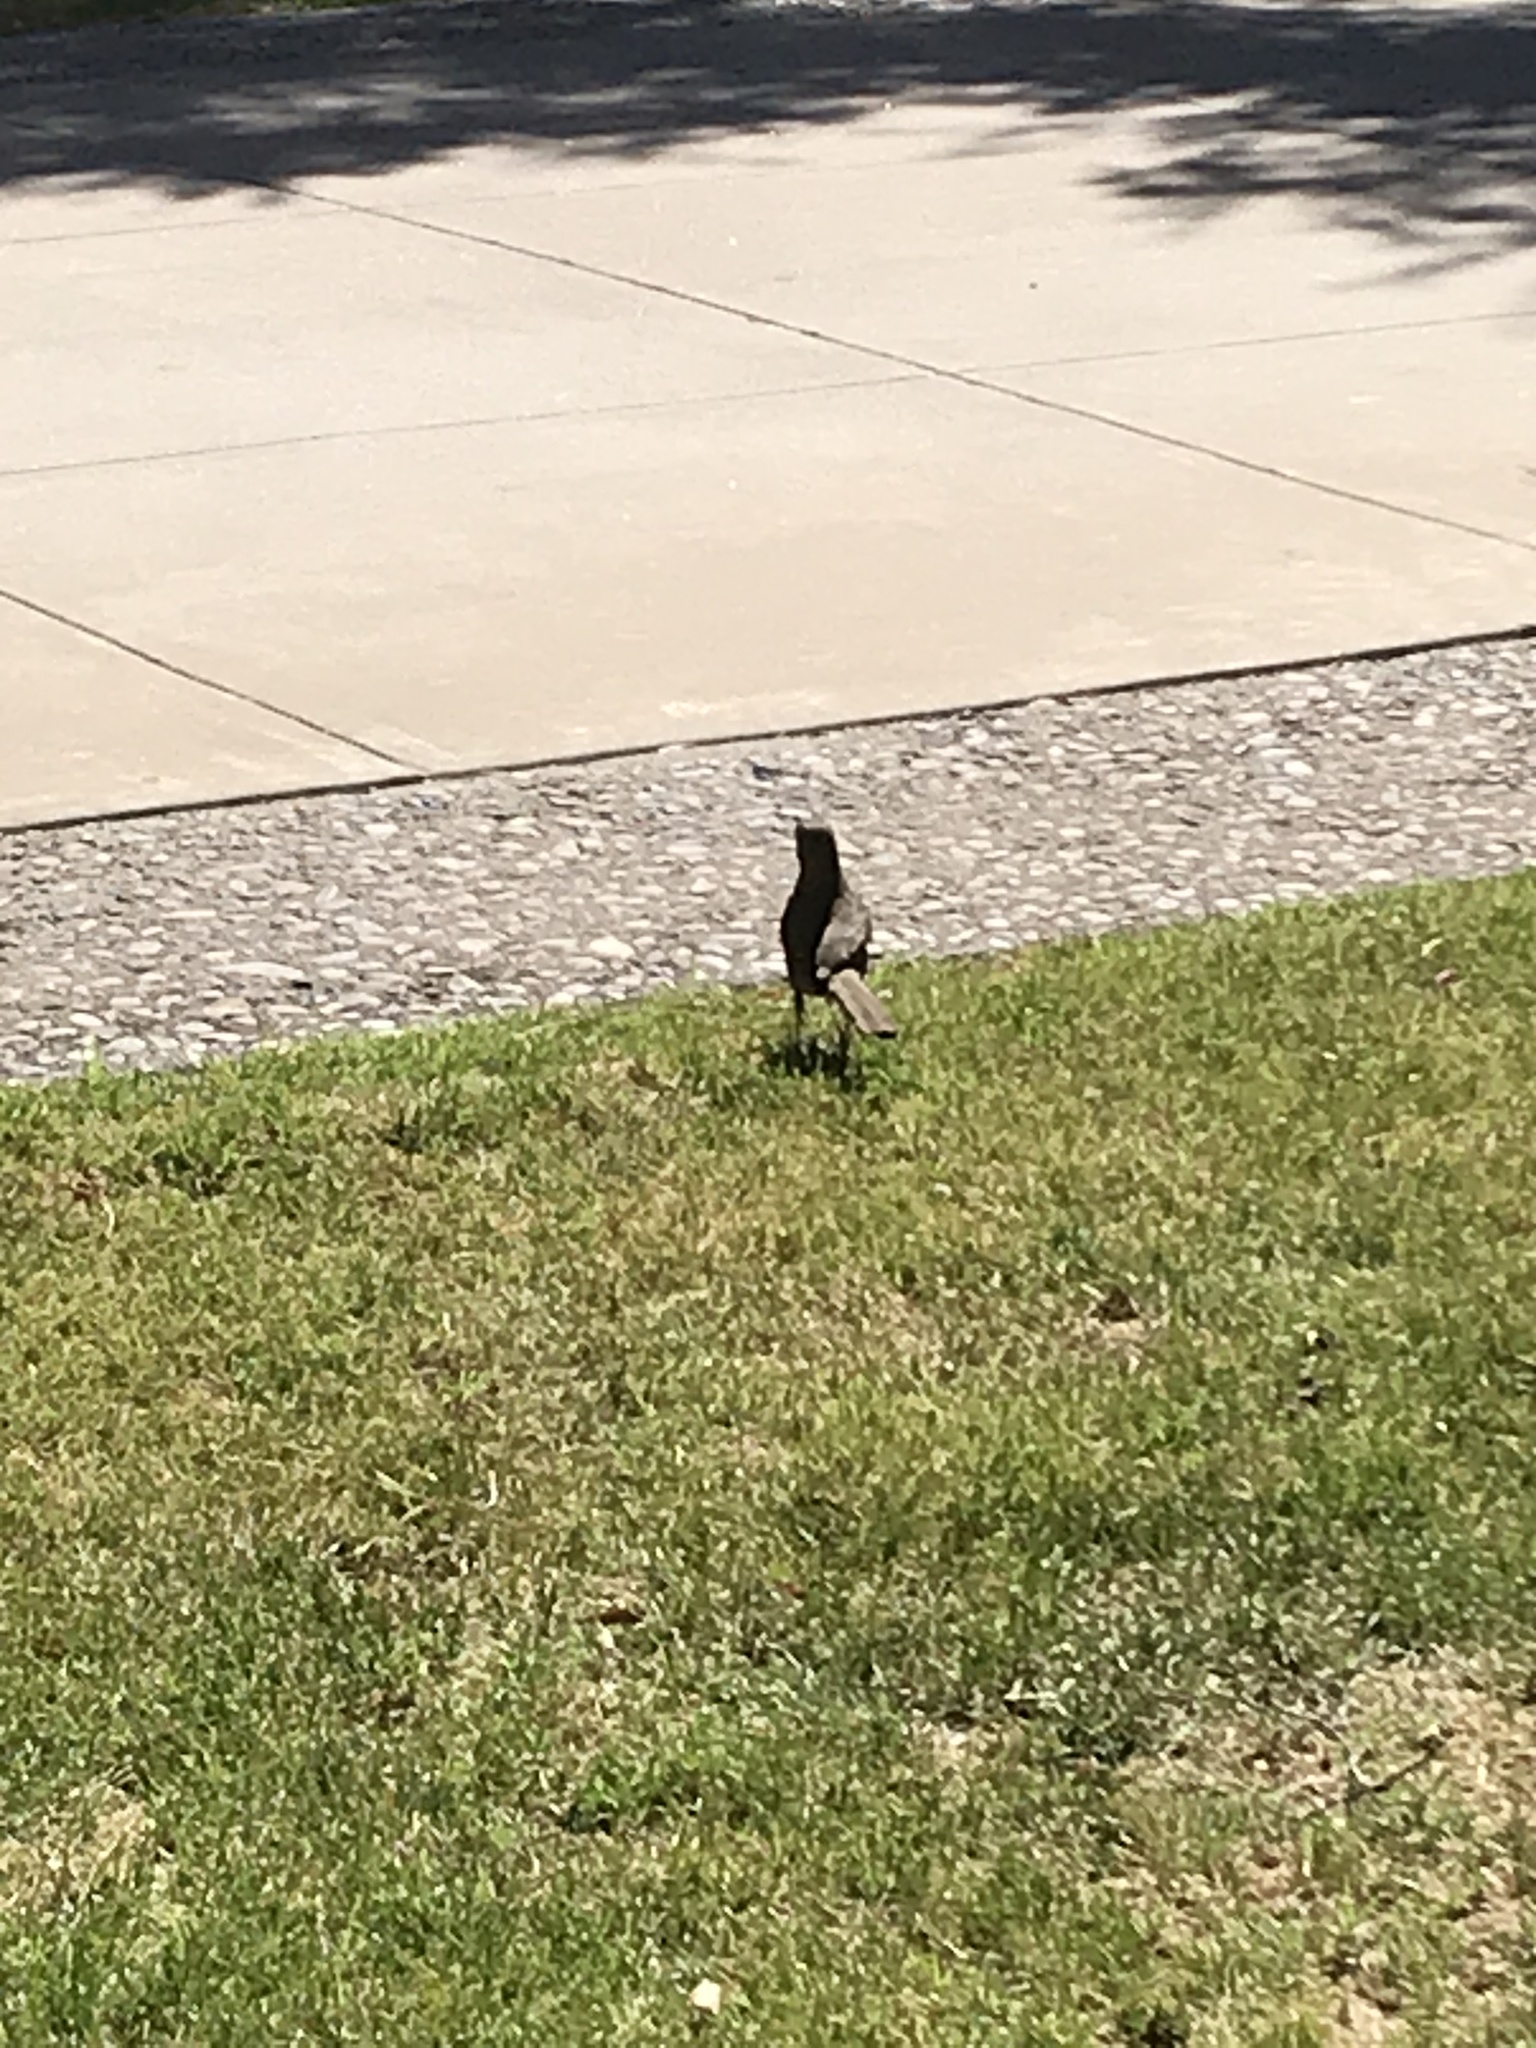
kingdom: Animalia
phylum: Chordata
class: Aves
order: Passeriformes
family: Icteridae
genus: Quiscalus
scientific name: Quiscalus mexicanus
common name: Great-tailed grackle
